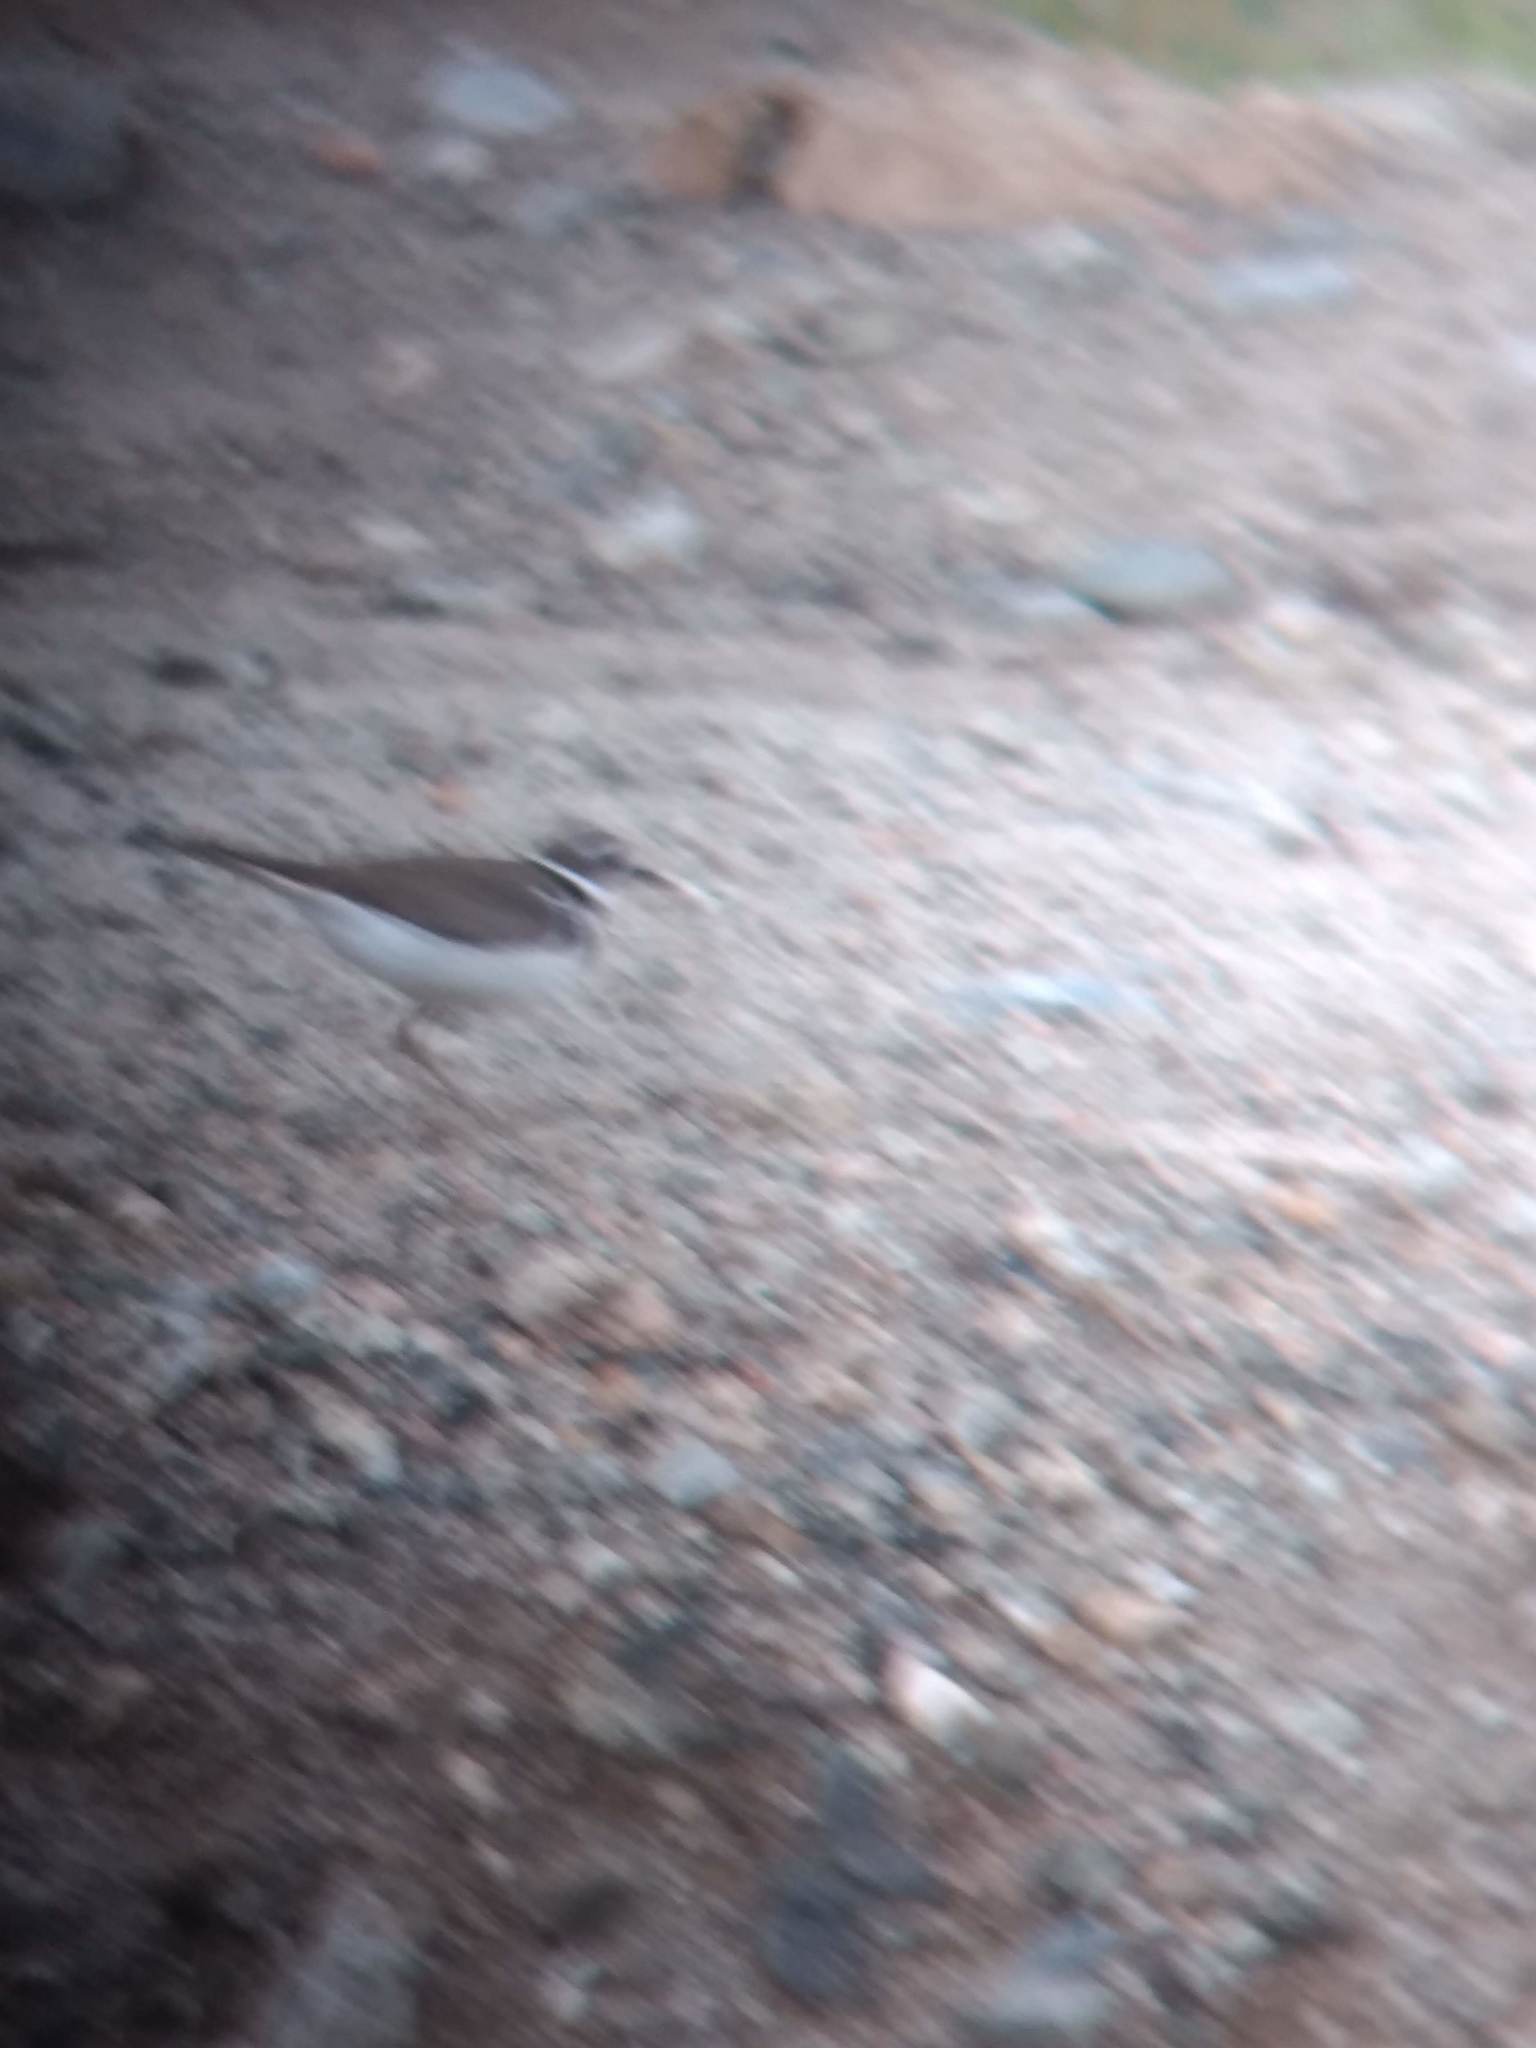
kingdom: Animalia
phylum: Chordata
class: Aves
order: Charadriiformes
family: Charadriidae
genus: Charadrius
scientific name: Charadrius vociferus
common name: Killdeer
